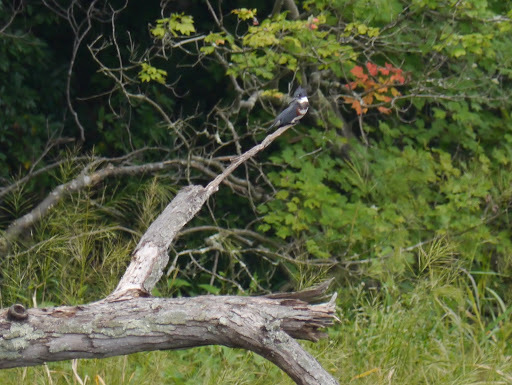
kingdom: Animalia
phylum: Chordata
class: Aves
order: Coraciiformes
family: Alcedinidae
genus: Megaceryle
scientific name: Megaceryle alcyon
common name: Belted kingfisher
